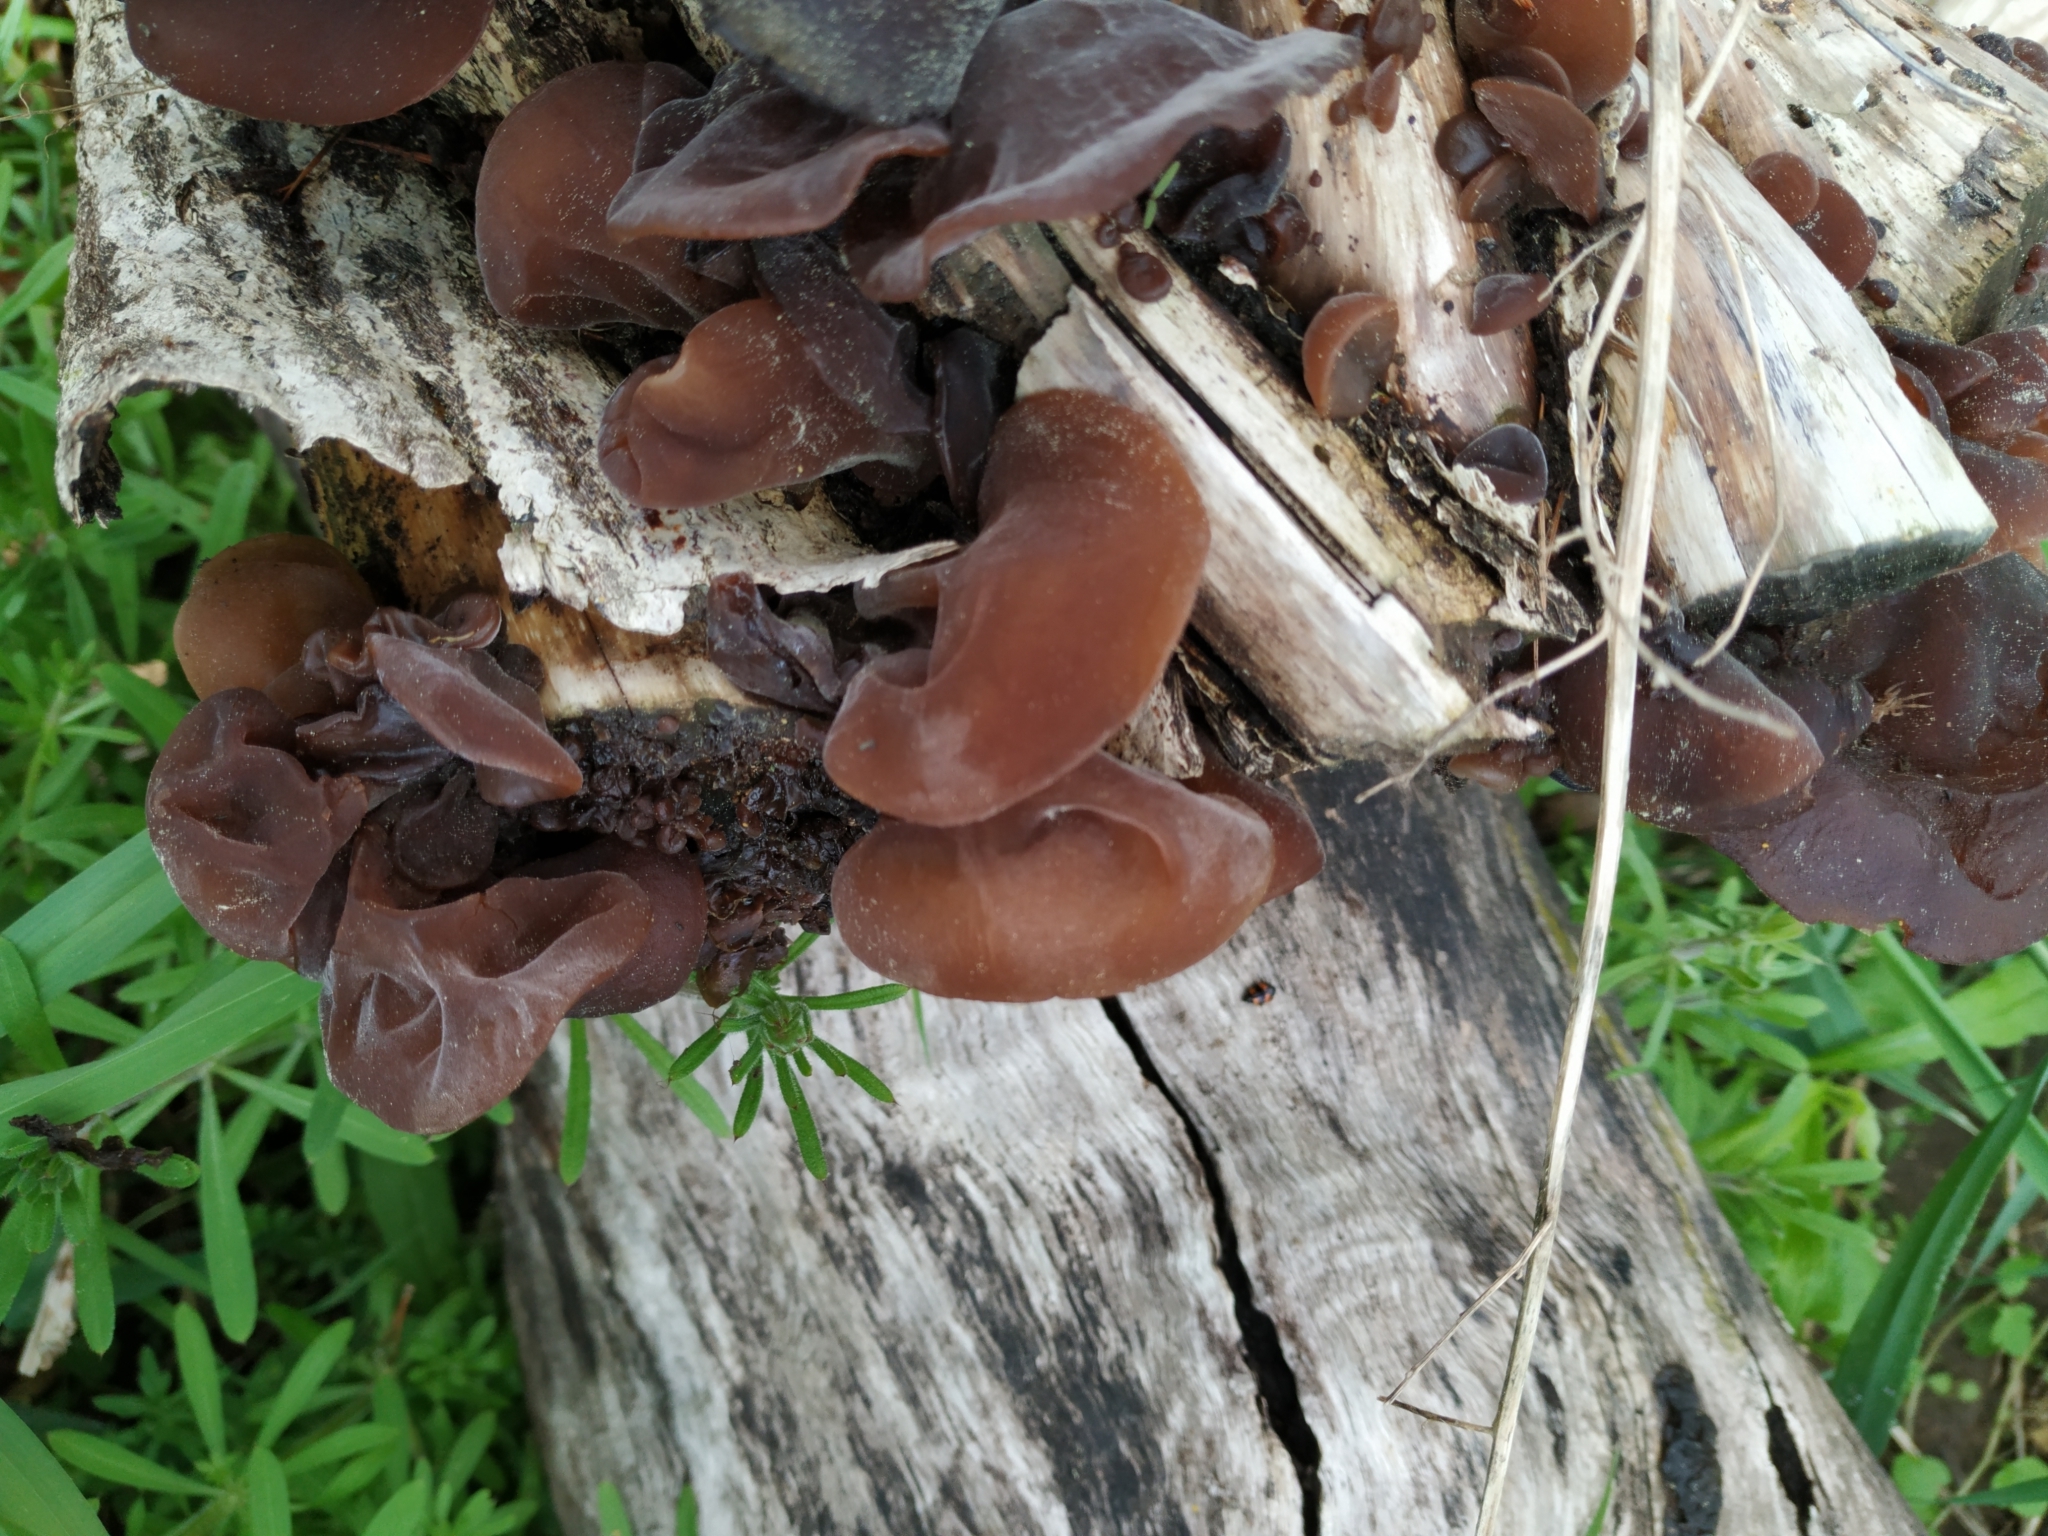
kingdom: Fungi
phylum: Basidiomycota
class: Agaricomycetes
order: Auriculariales
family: Auriculariaceae
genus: Auricularia
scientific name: Auricularia auricula-judae
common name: Jelly ear
